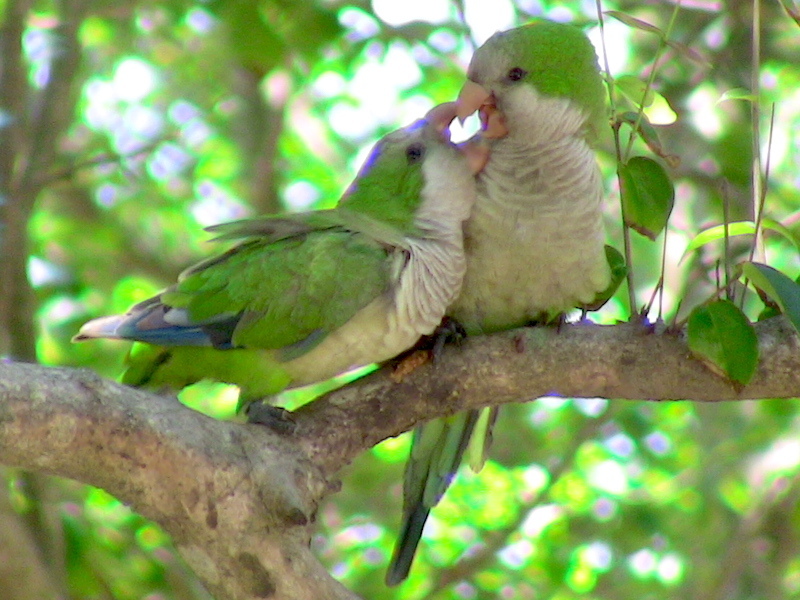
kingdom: Animalia
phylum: Chordata
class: Aves
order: Psittaciformes
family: Psittacidae
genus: Myiopsitta
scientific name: Myiopsitta monachus
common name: Monk parakeet
